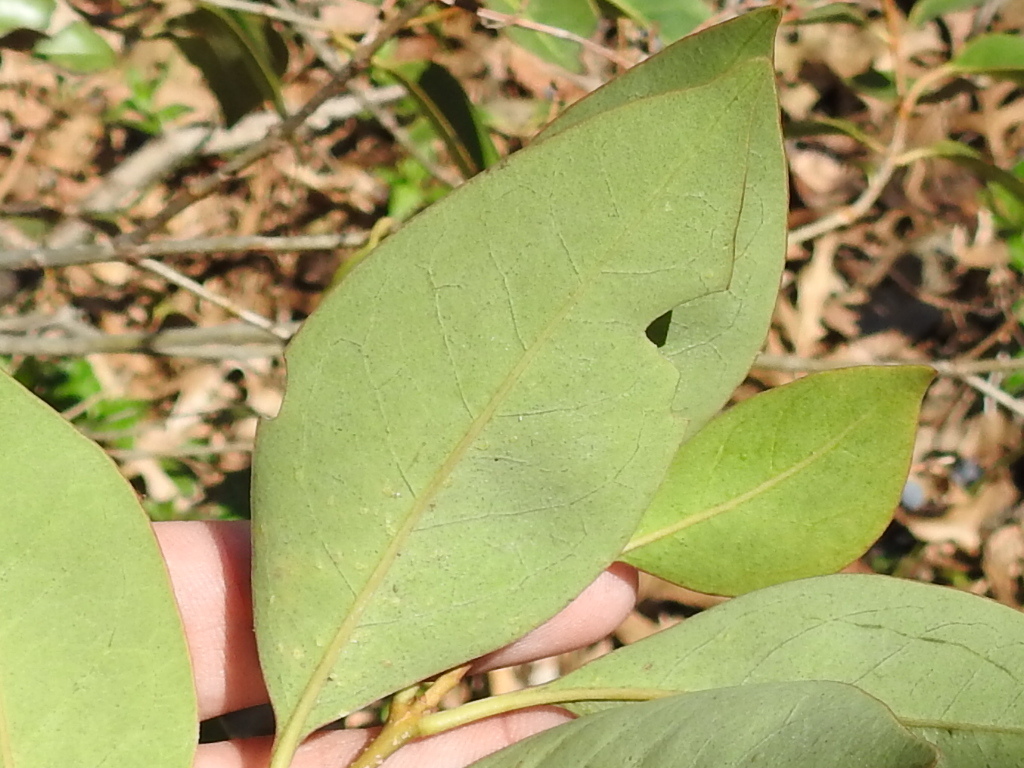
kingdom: Plantae
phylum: Tracheophyta
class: Magnoliopsida
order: Lamiales
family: Oleaceae
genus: Ligustrum
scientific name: Ligustrum lucidum
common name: Glossy privet
